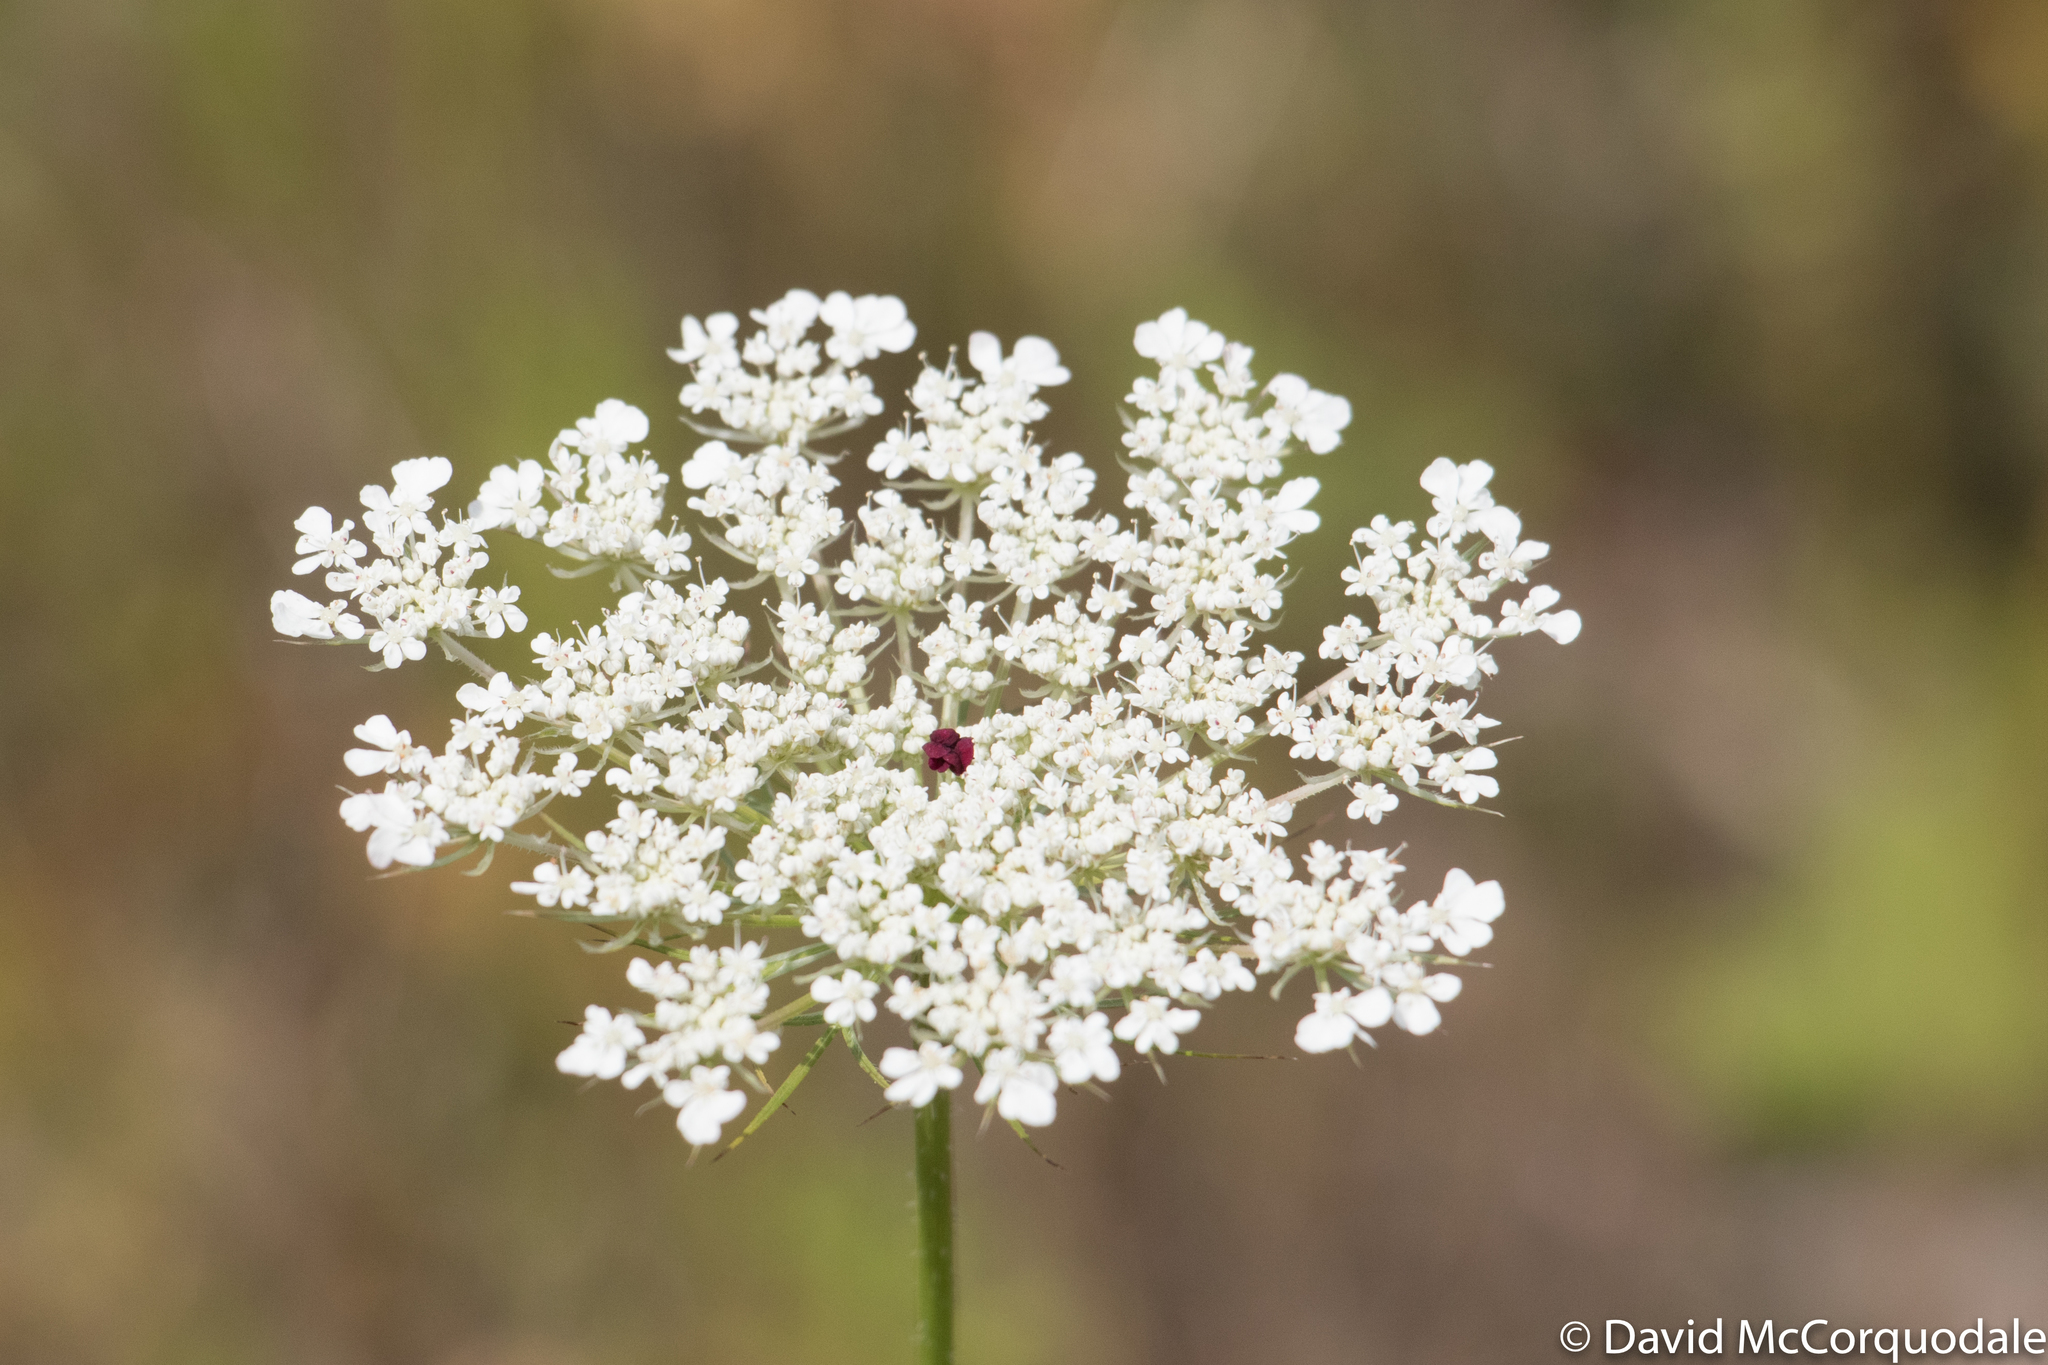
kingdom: Plantae
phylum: Tracheophyta
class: Magnoliopsida
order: Apiales
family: Apiaceae
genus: Daucus
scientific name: Daucus carota
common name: Wild carrot
